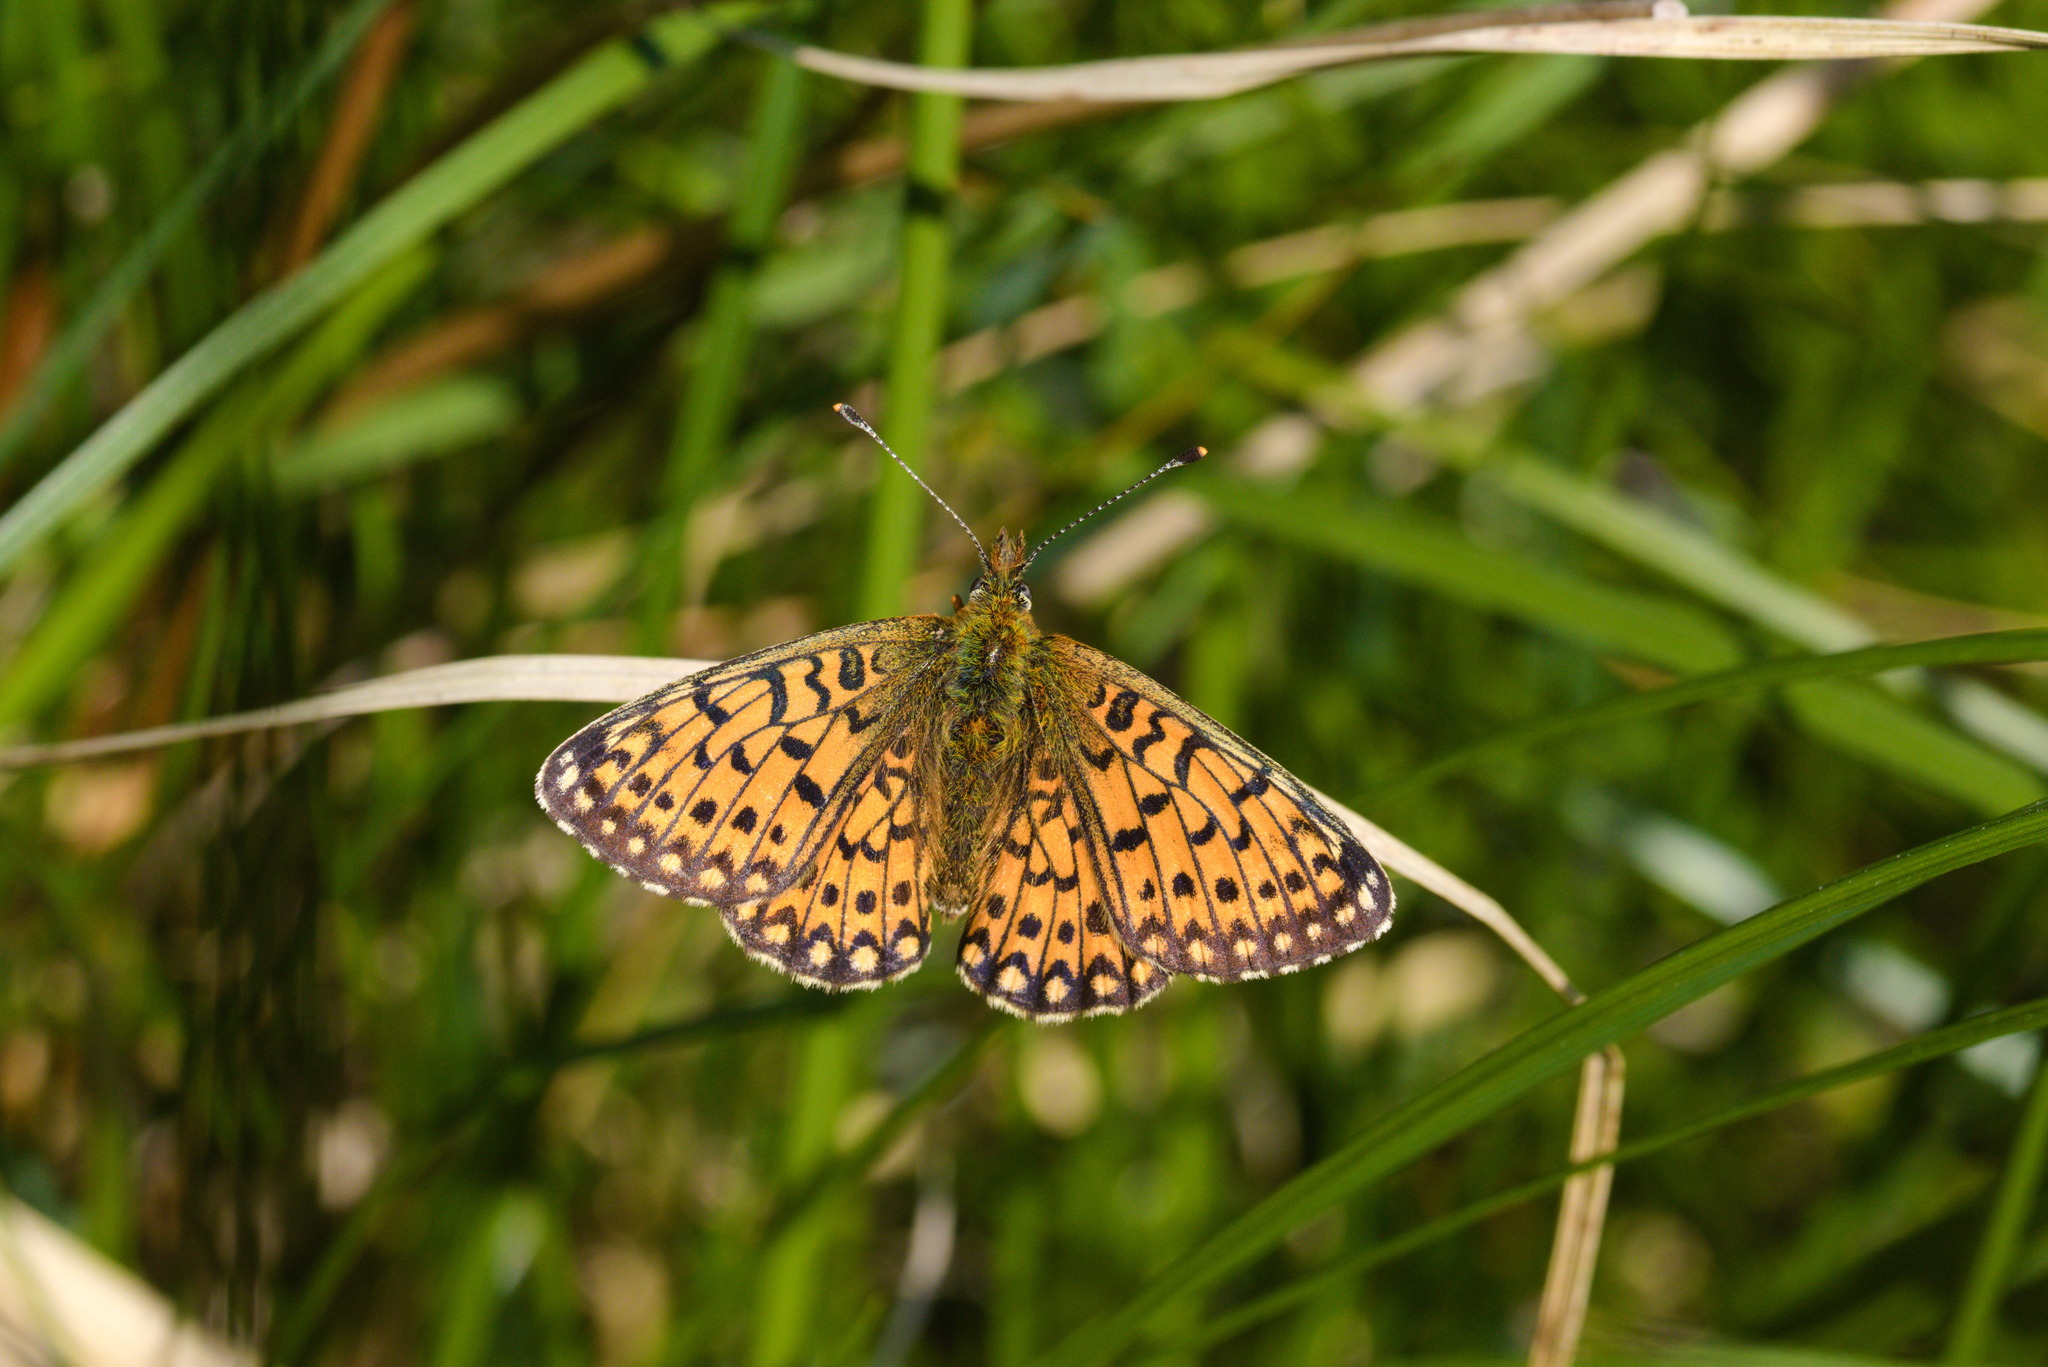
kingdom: Animalia
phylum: Arthropoda
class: Insecta
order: Lepidoptera
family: Nymphalidae
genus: Boloria
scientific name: Boloria selene
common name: Small pearl-bordered fritillary
